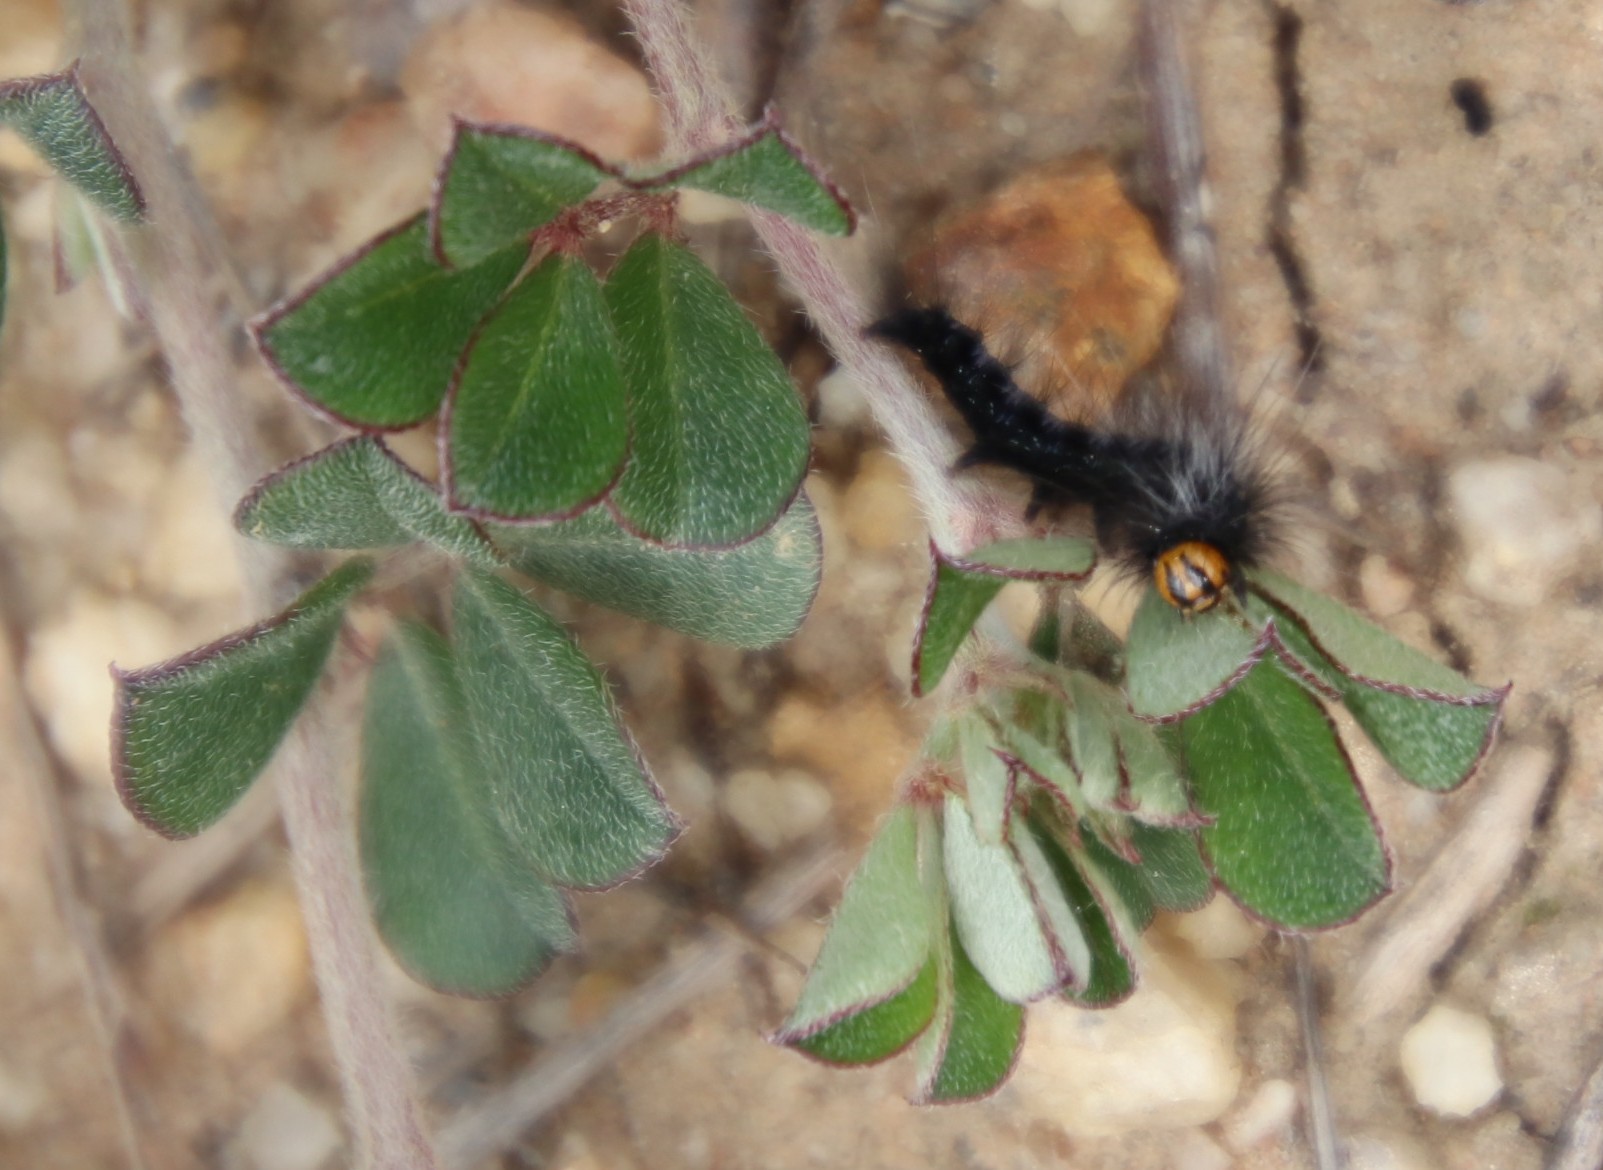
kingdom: Animalia
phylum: Arthropoda
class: Insecta
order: Lepidoptera
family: Lasiocampidae
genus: Mesocelis
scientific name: Mesocelis monticola
